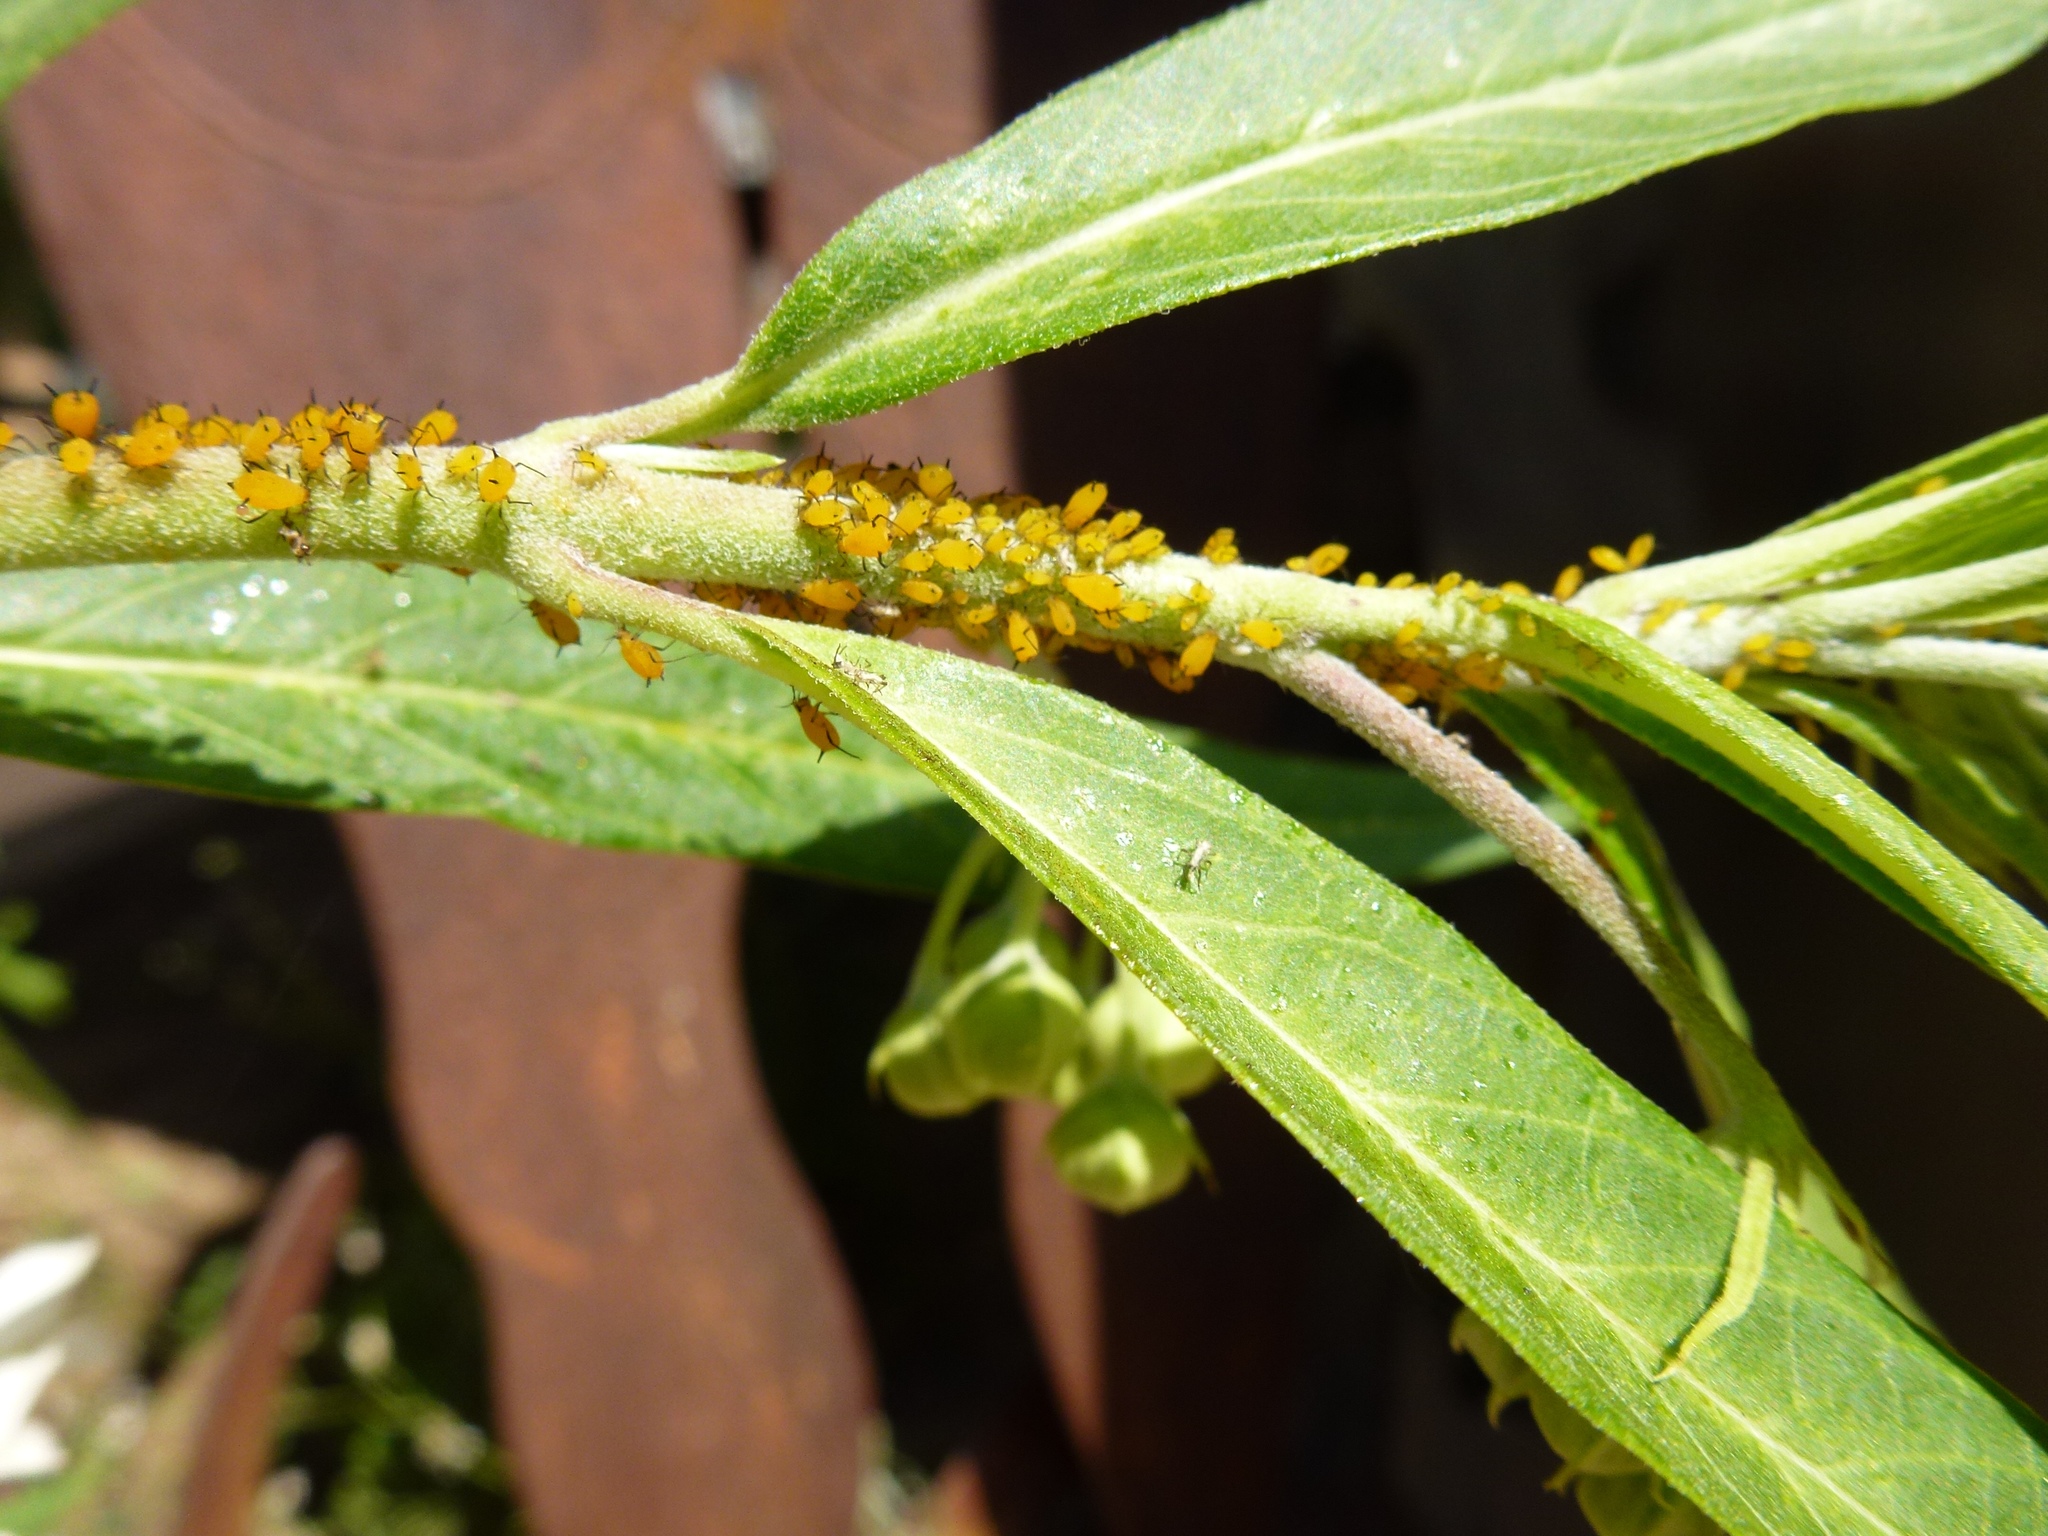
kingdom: Animalia
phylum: Arthropoda
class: Insecta
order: Hemiptera
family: Aphididae
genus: Aphis
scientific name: Aphis nerii
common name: Oleander aphid
